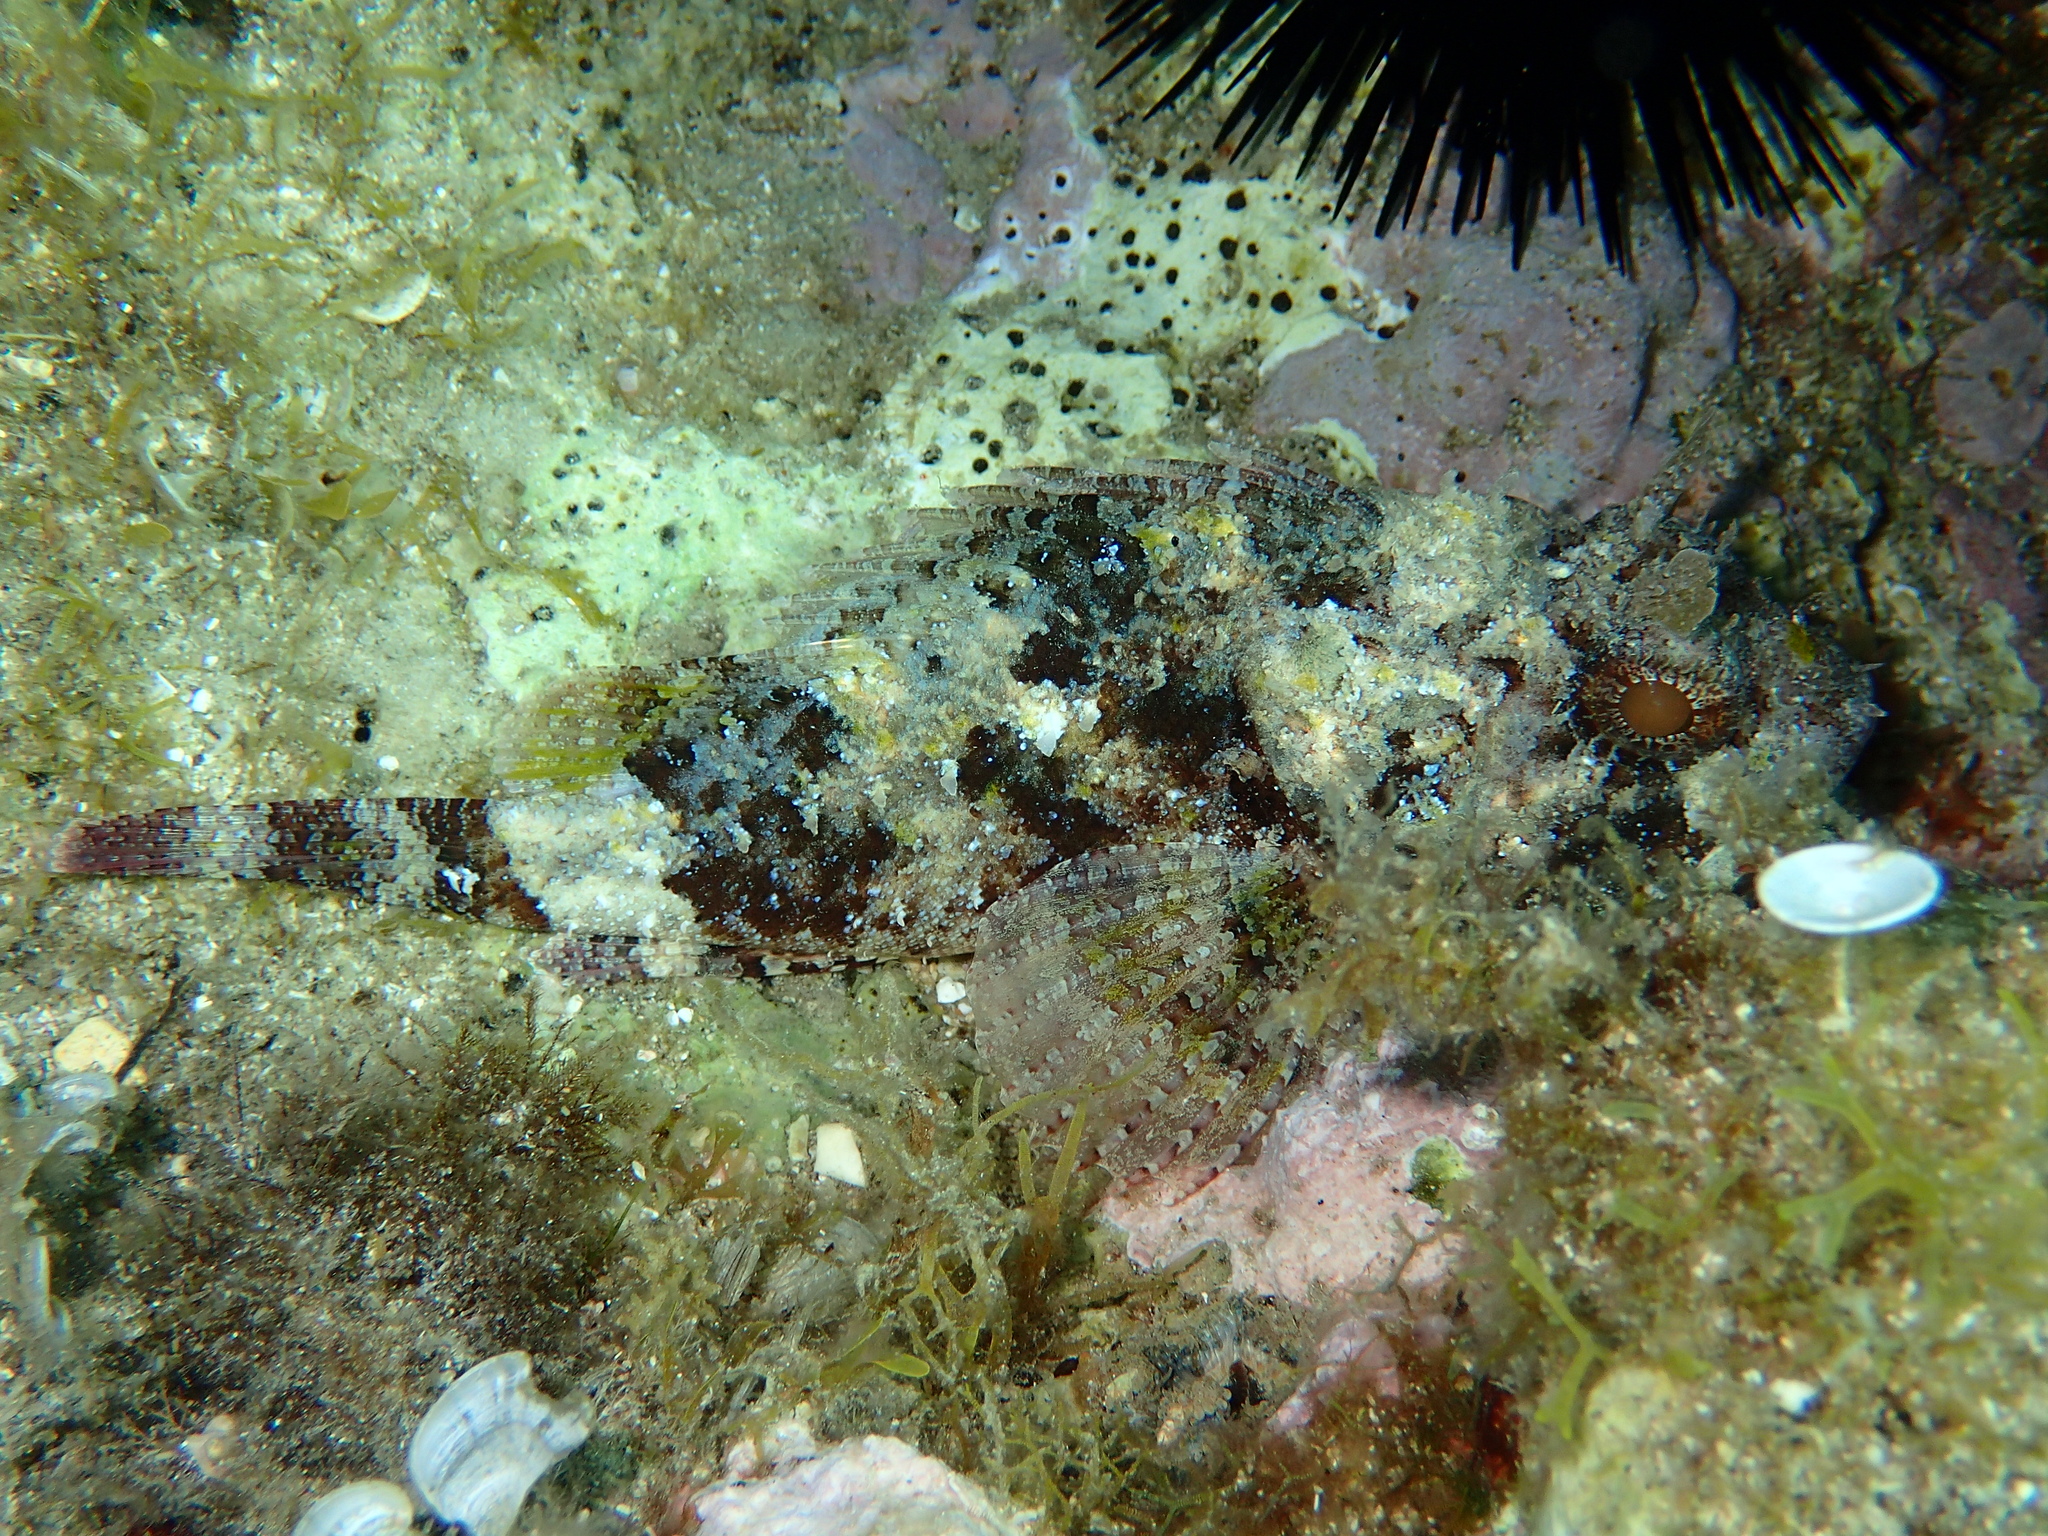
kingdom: Animalia
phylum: Chordata
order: Scorpaeniformes
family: Scorpaenidae
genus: Scorpaena
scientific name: Scorpaena porcus
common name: Black scorpionfish
